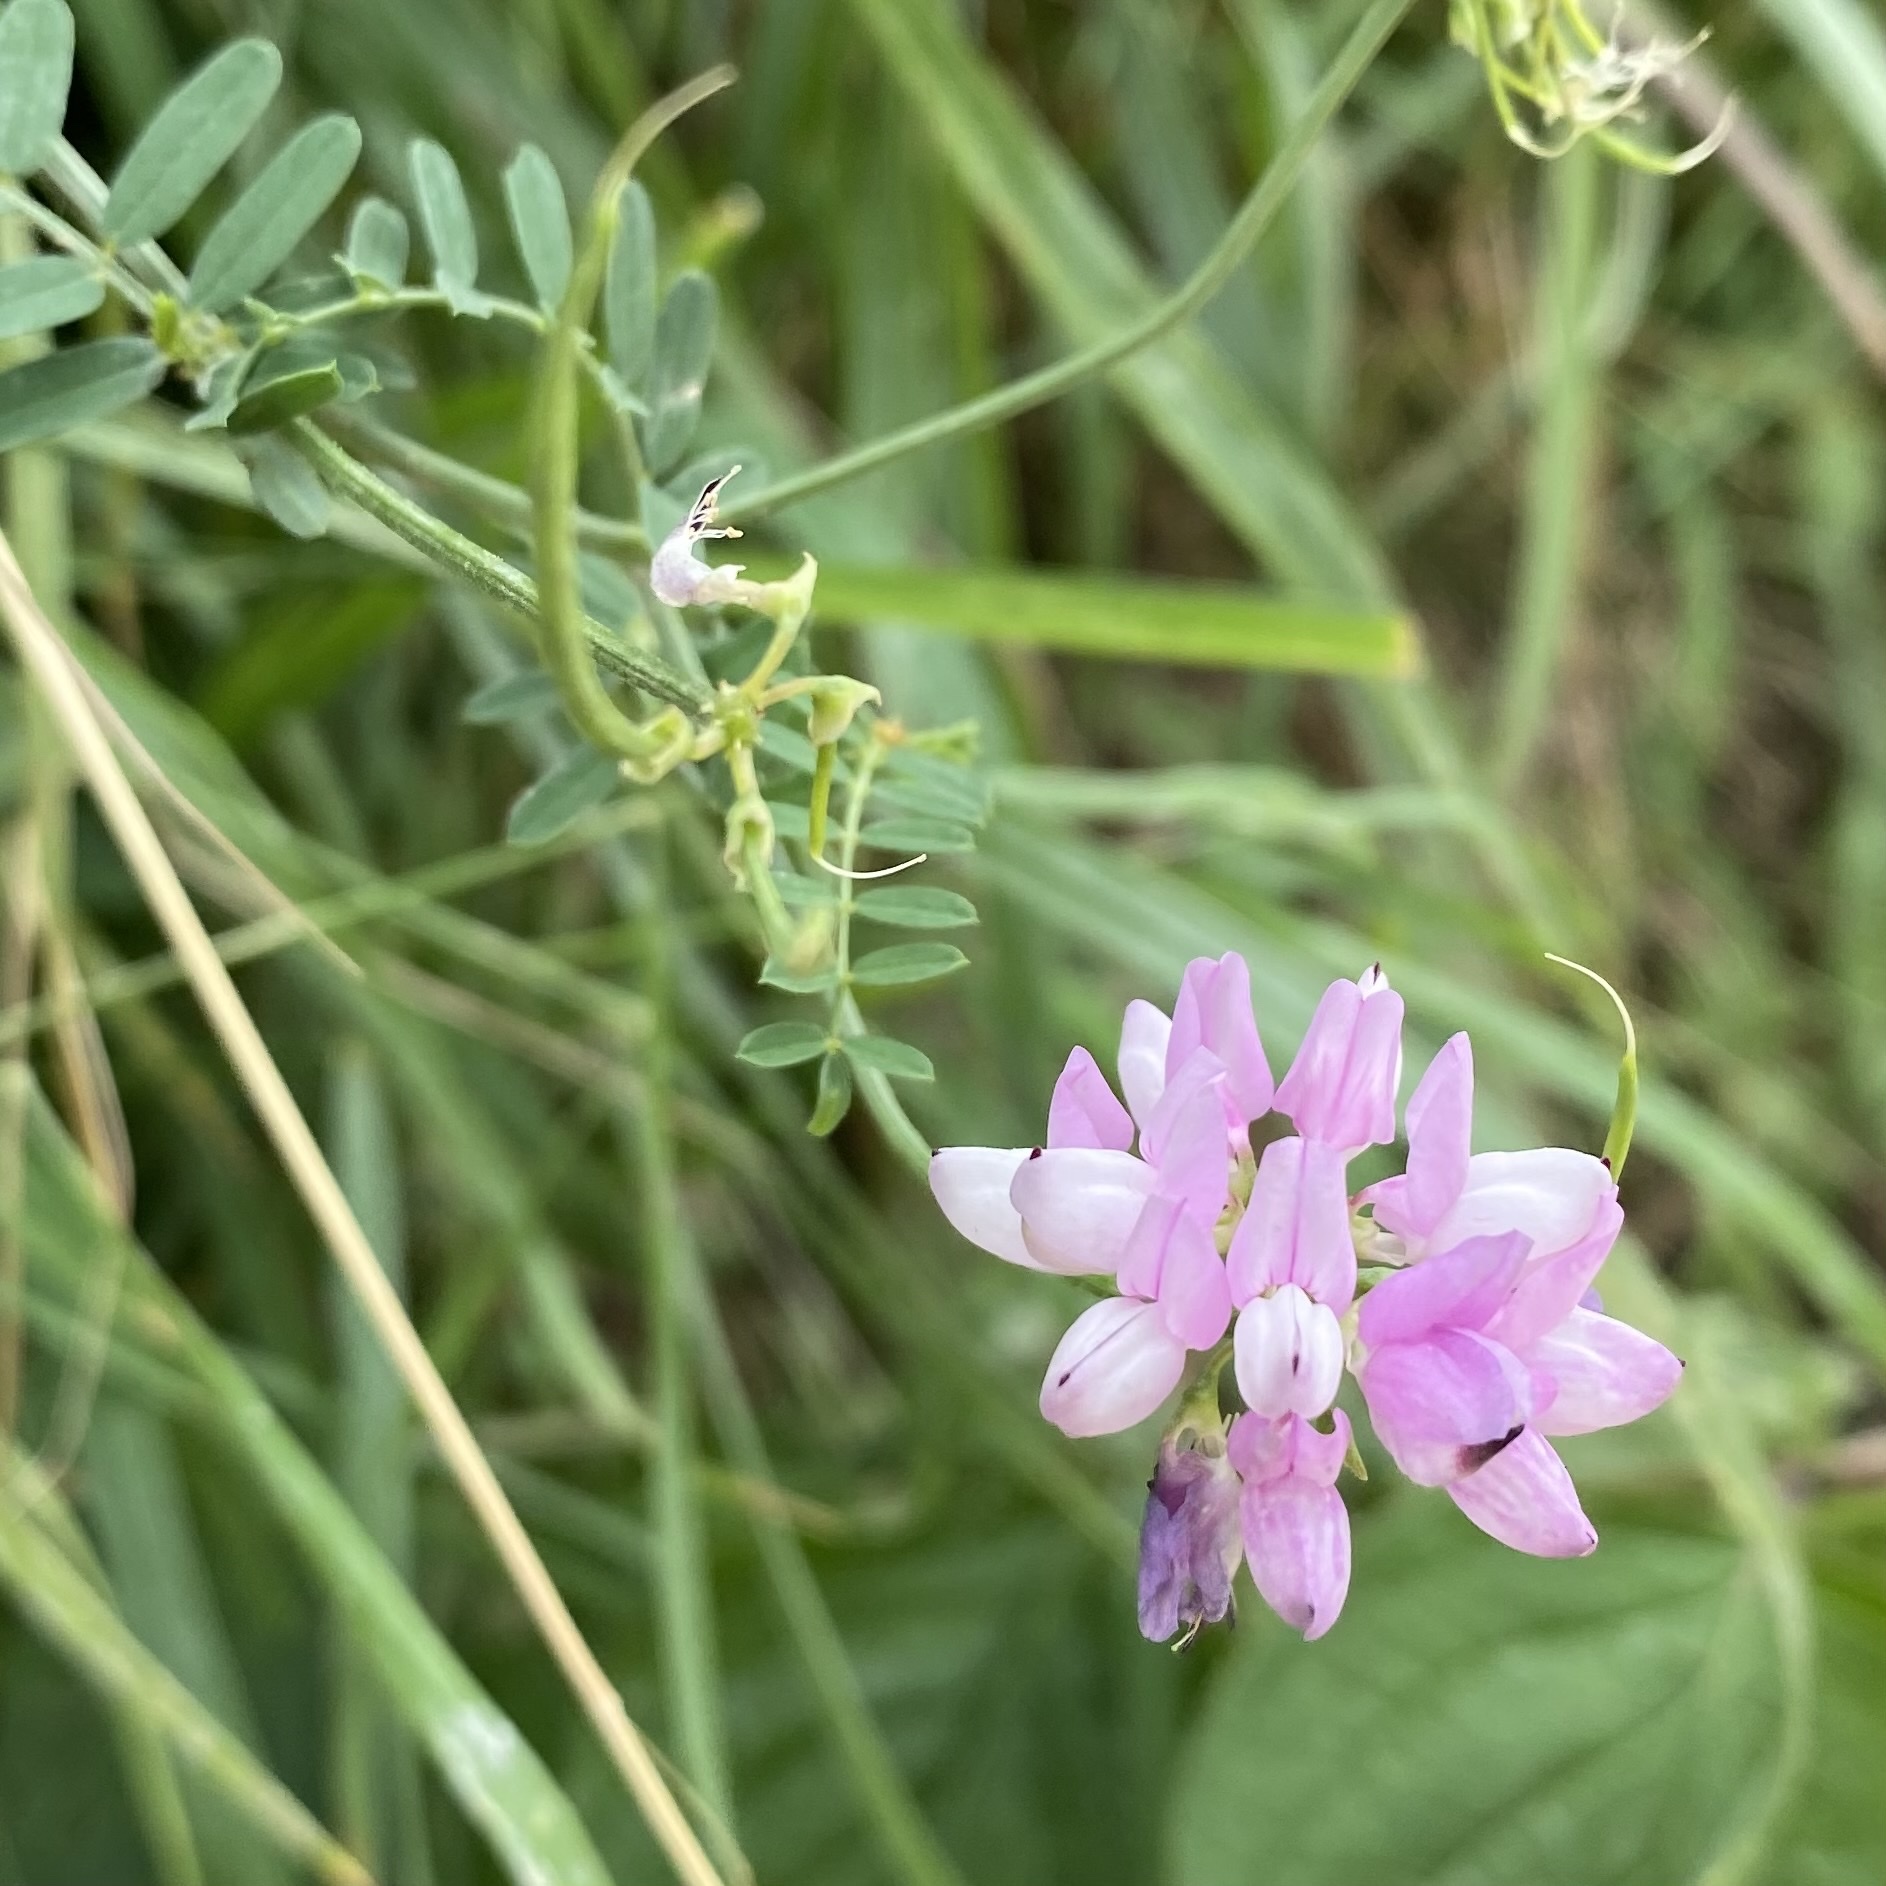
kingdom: Plantae
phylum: Tracheophyta
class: Magnoliopsida
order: Fabales
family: Fabaceae
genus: Coronilla
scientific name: Coronilla varia
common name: Crownvetch
